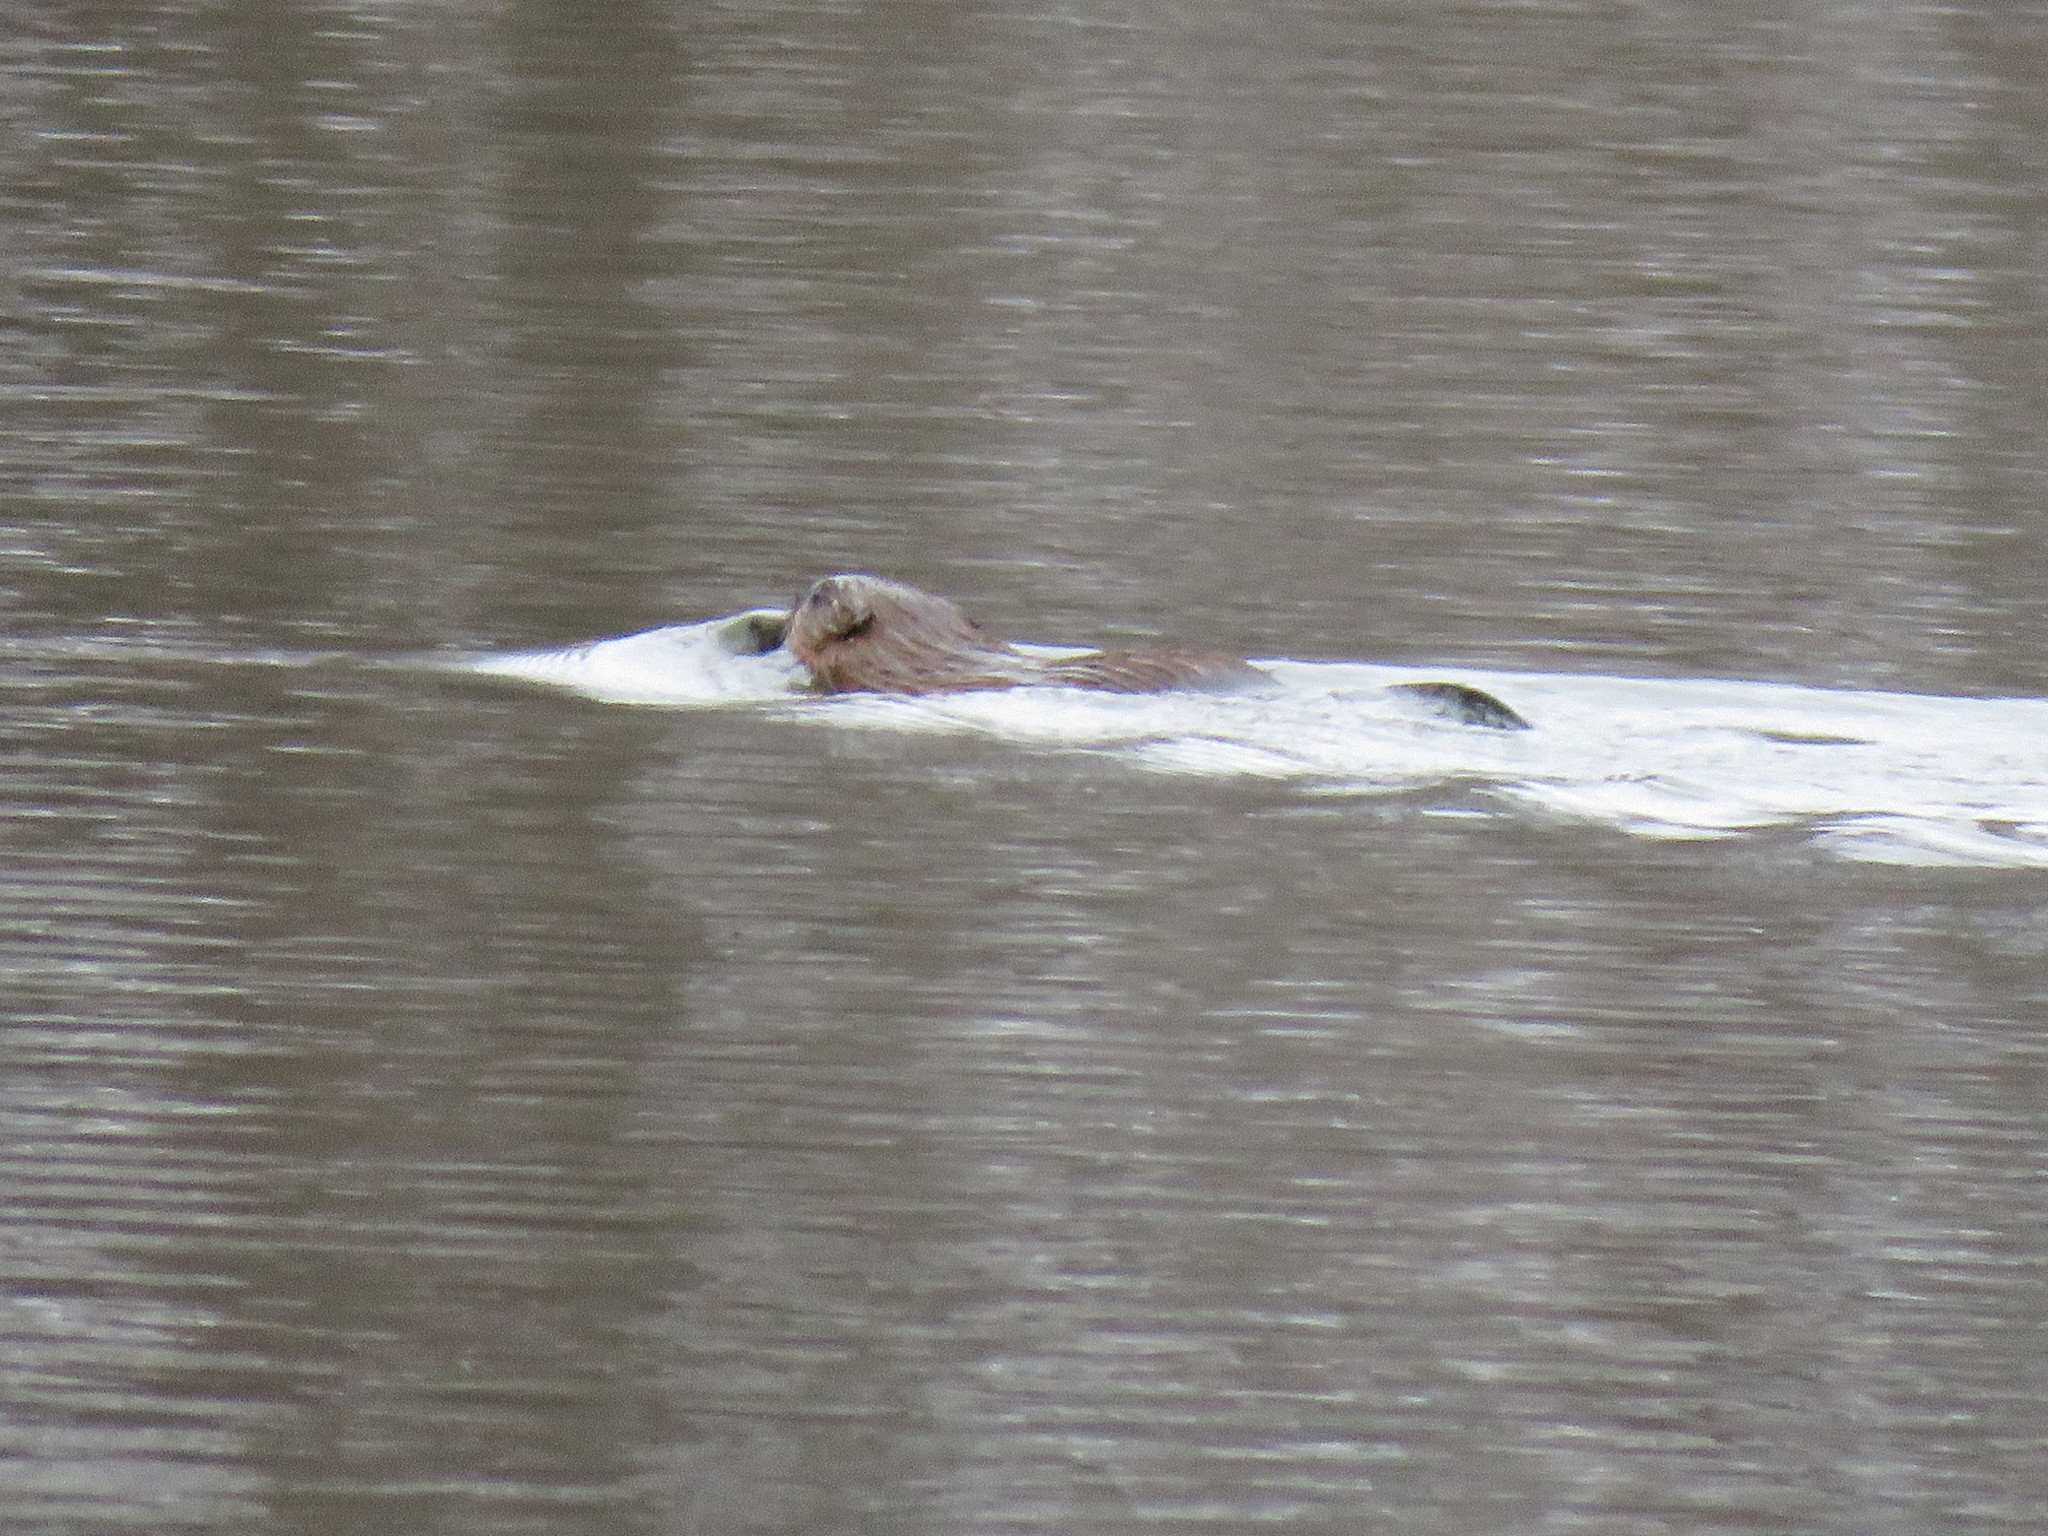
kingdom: Animalia
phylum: Chordata
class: Mammalia
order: Rodentia
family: Cricetidae
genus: Ondatra
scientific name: Ondatra zibethicus
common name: Muskrat
